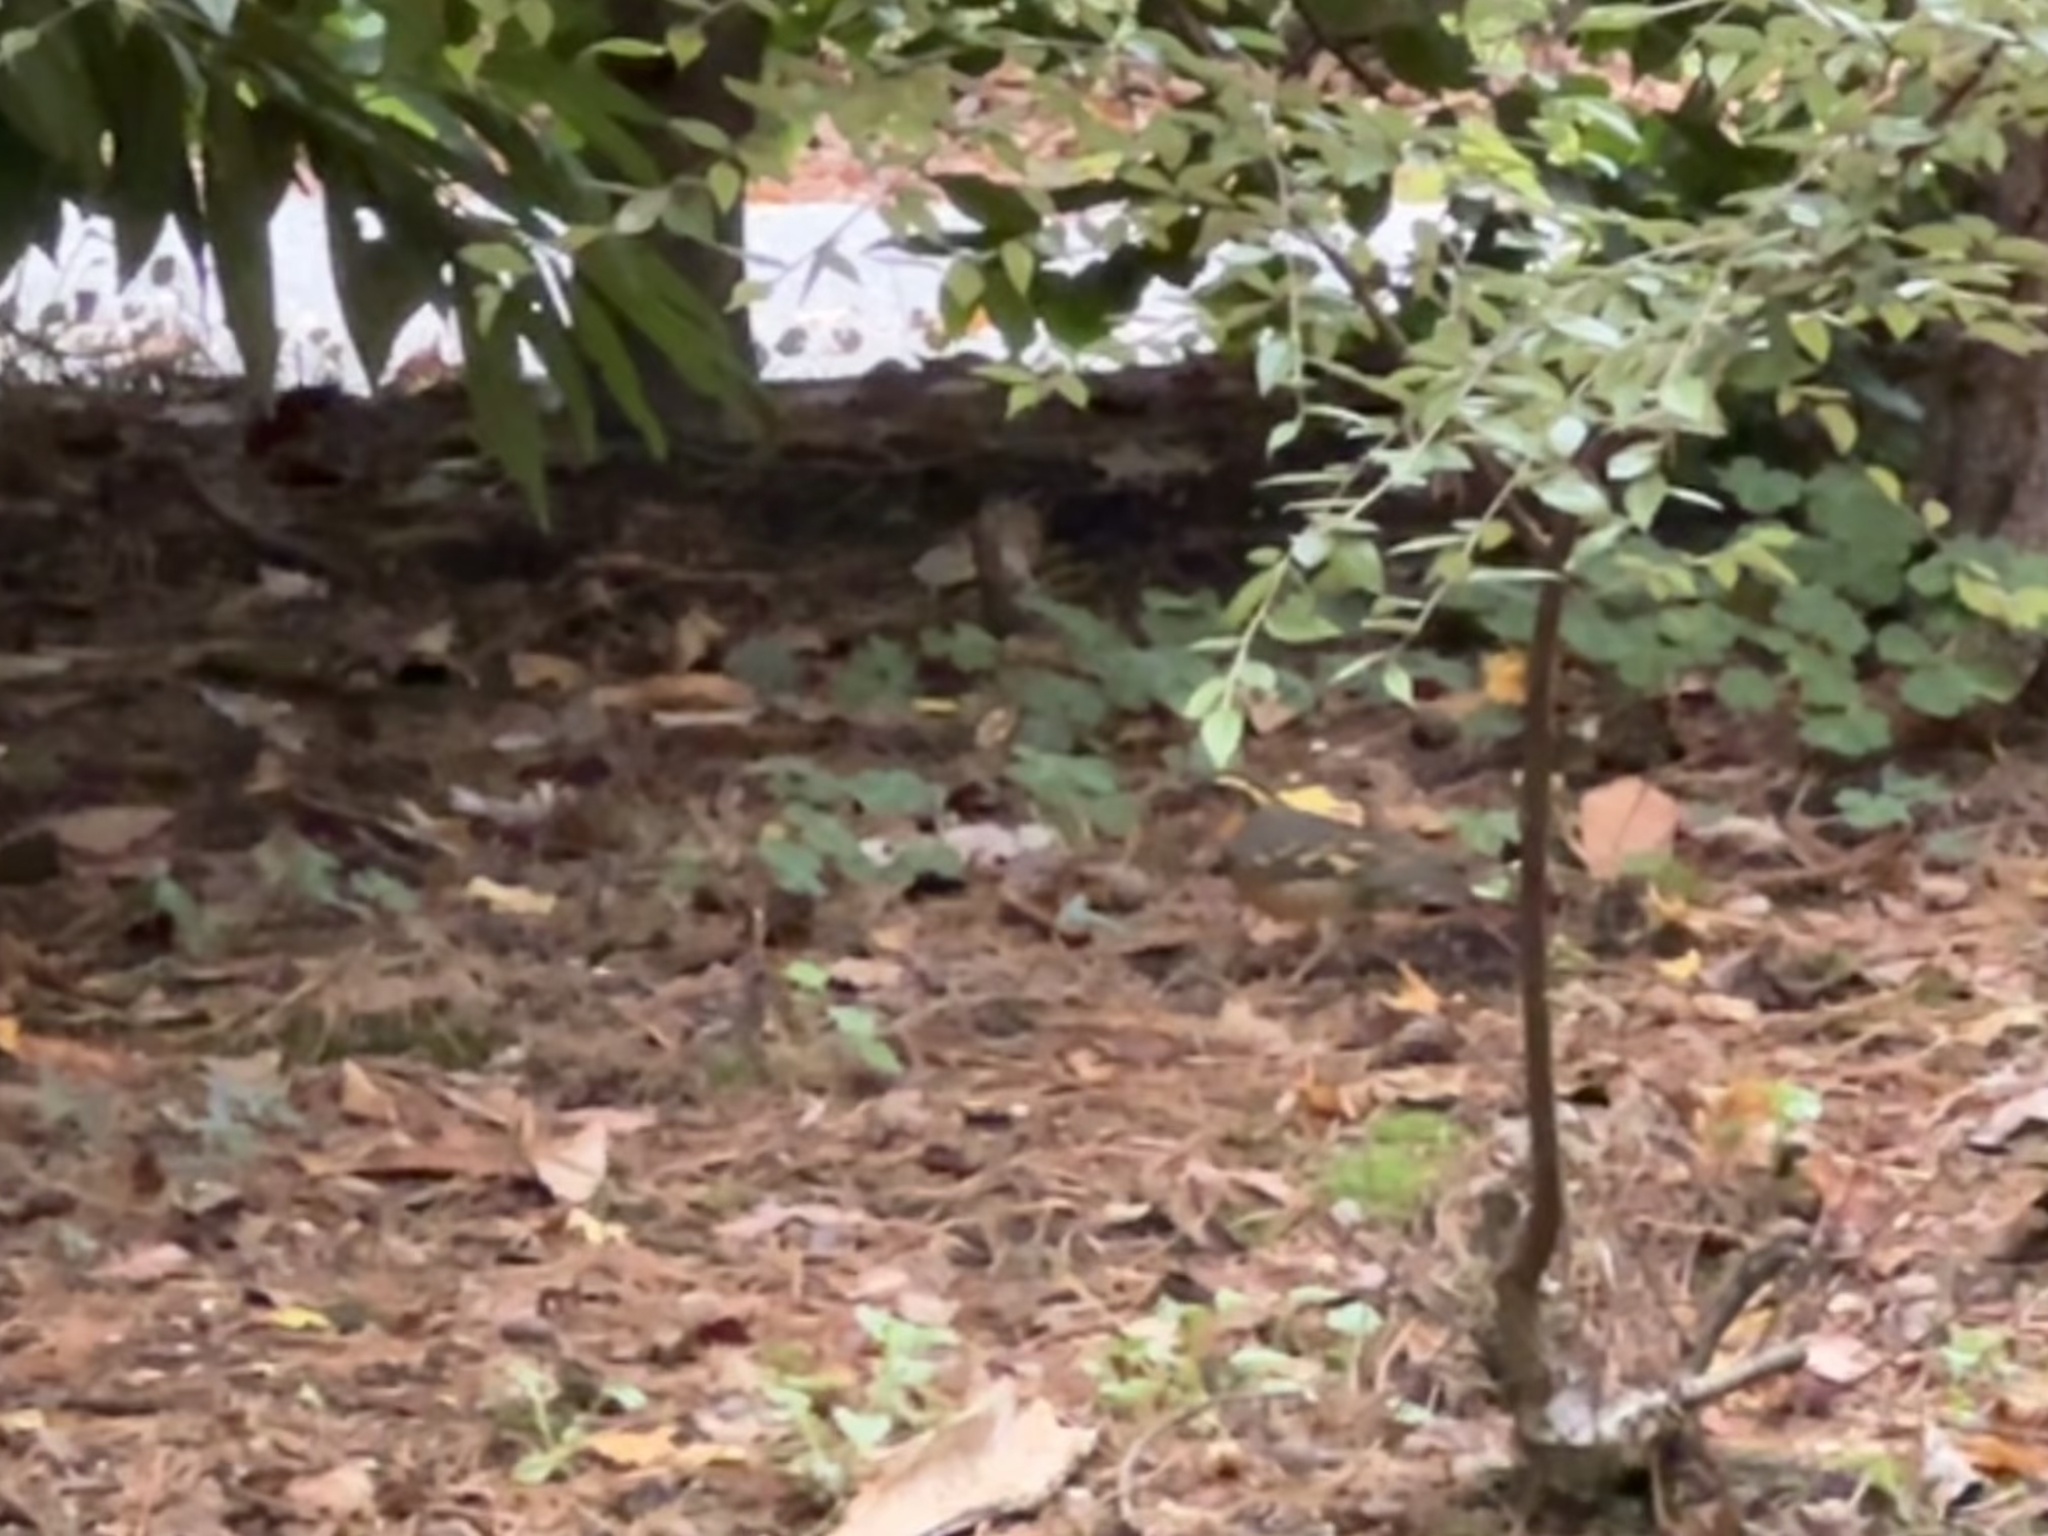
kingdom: Animalia
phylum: Chordata
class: Aves
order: Passeriformes
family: Turdidae
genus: Ixoreus
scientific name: Ixoreus naevius
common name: Varied thrush
